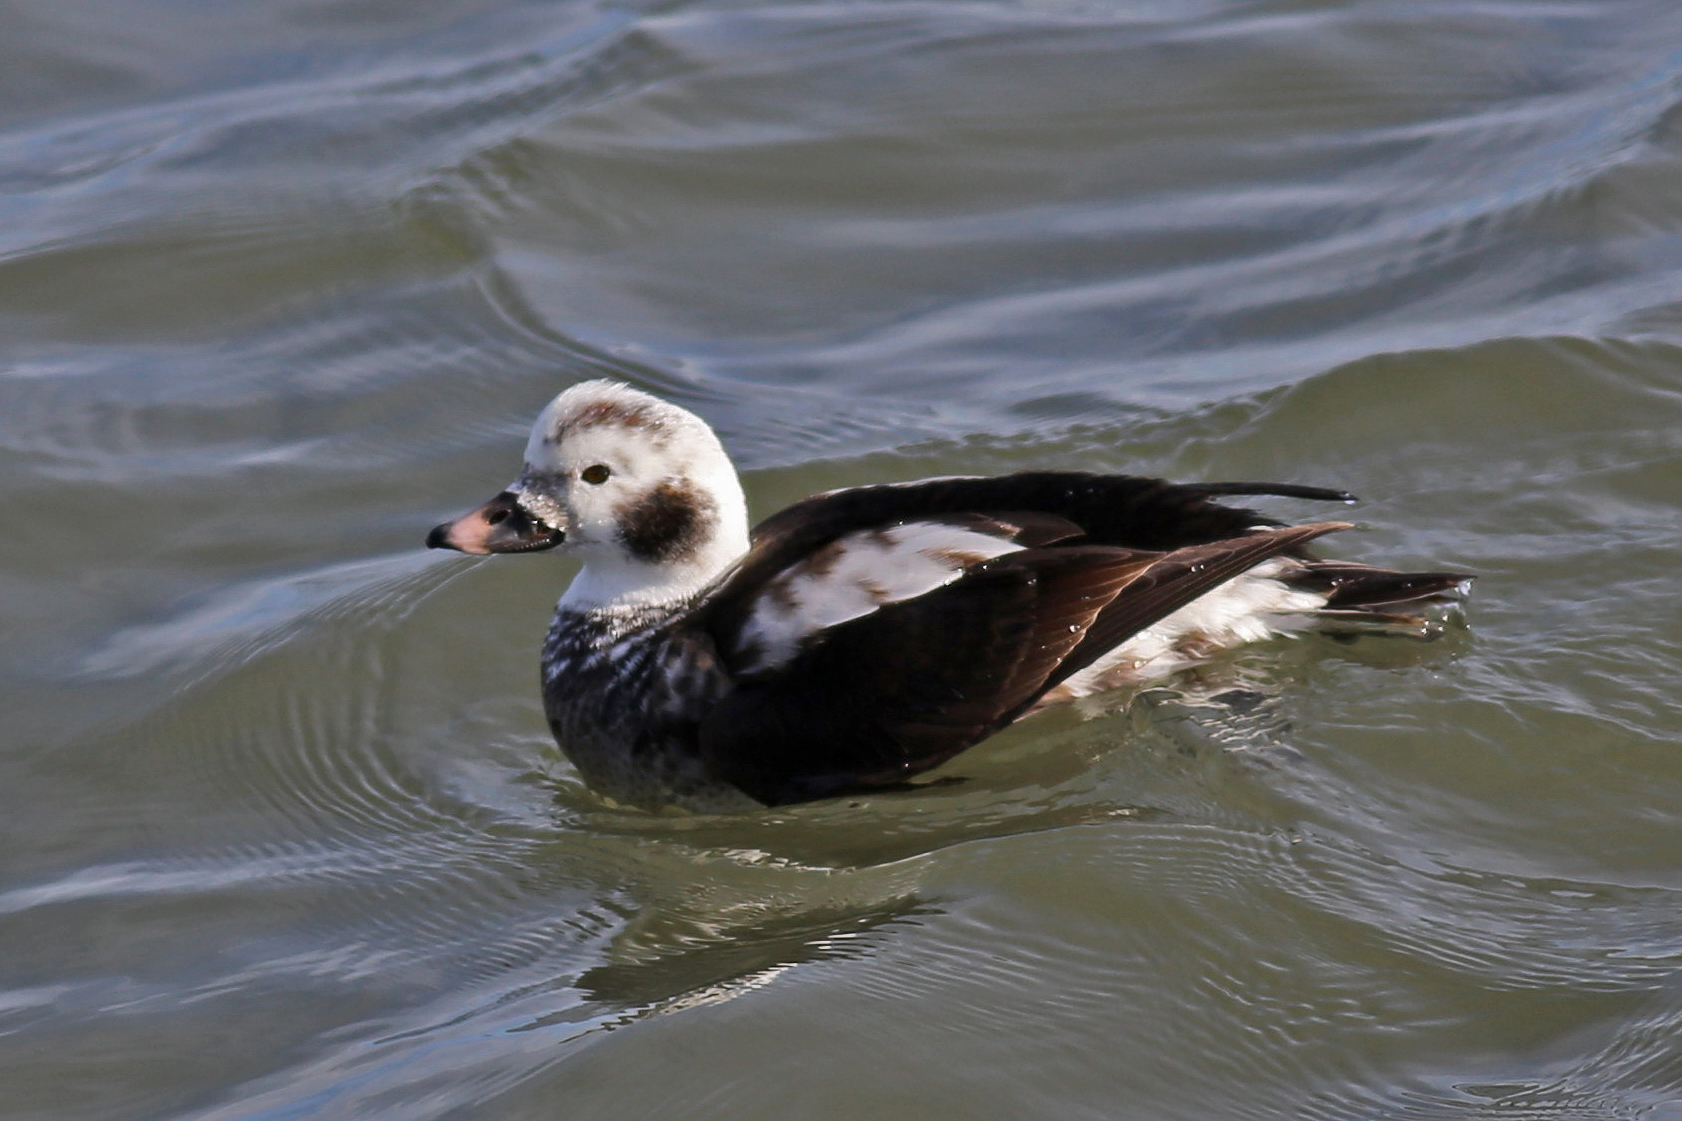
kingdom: Animalia
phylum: Chordata
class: Aves
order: Anseriformes
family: Anatidae
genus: Clangula
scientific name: Clangula hyemalis
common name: Long-tailed duck
